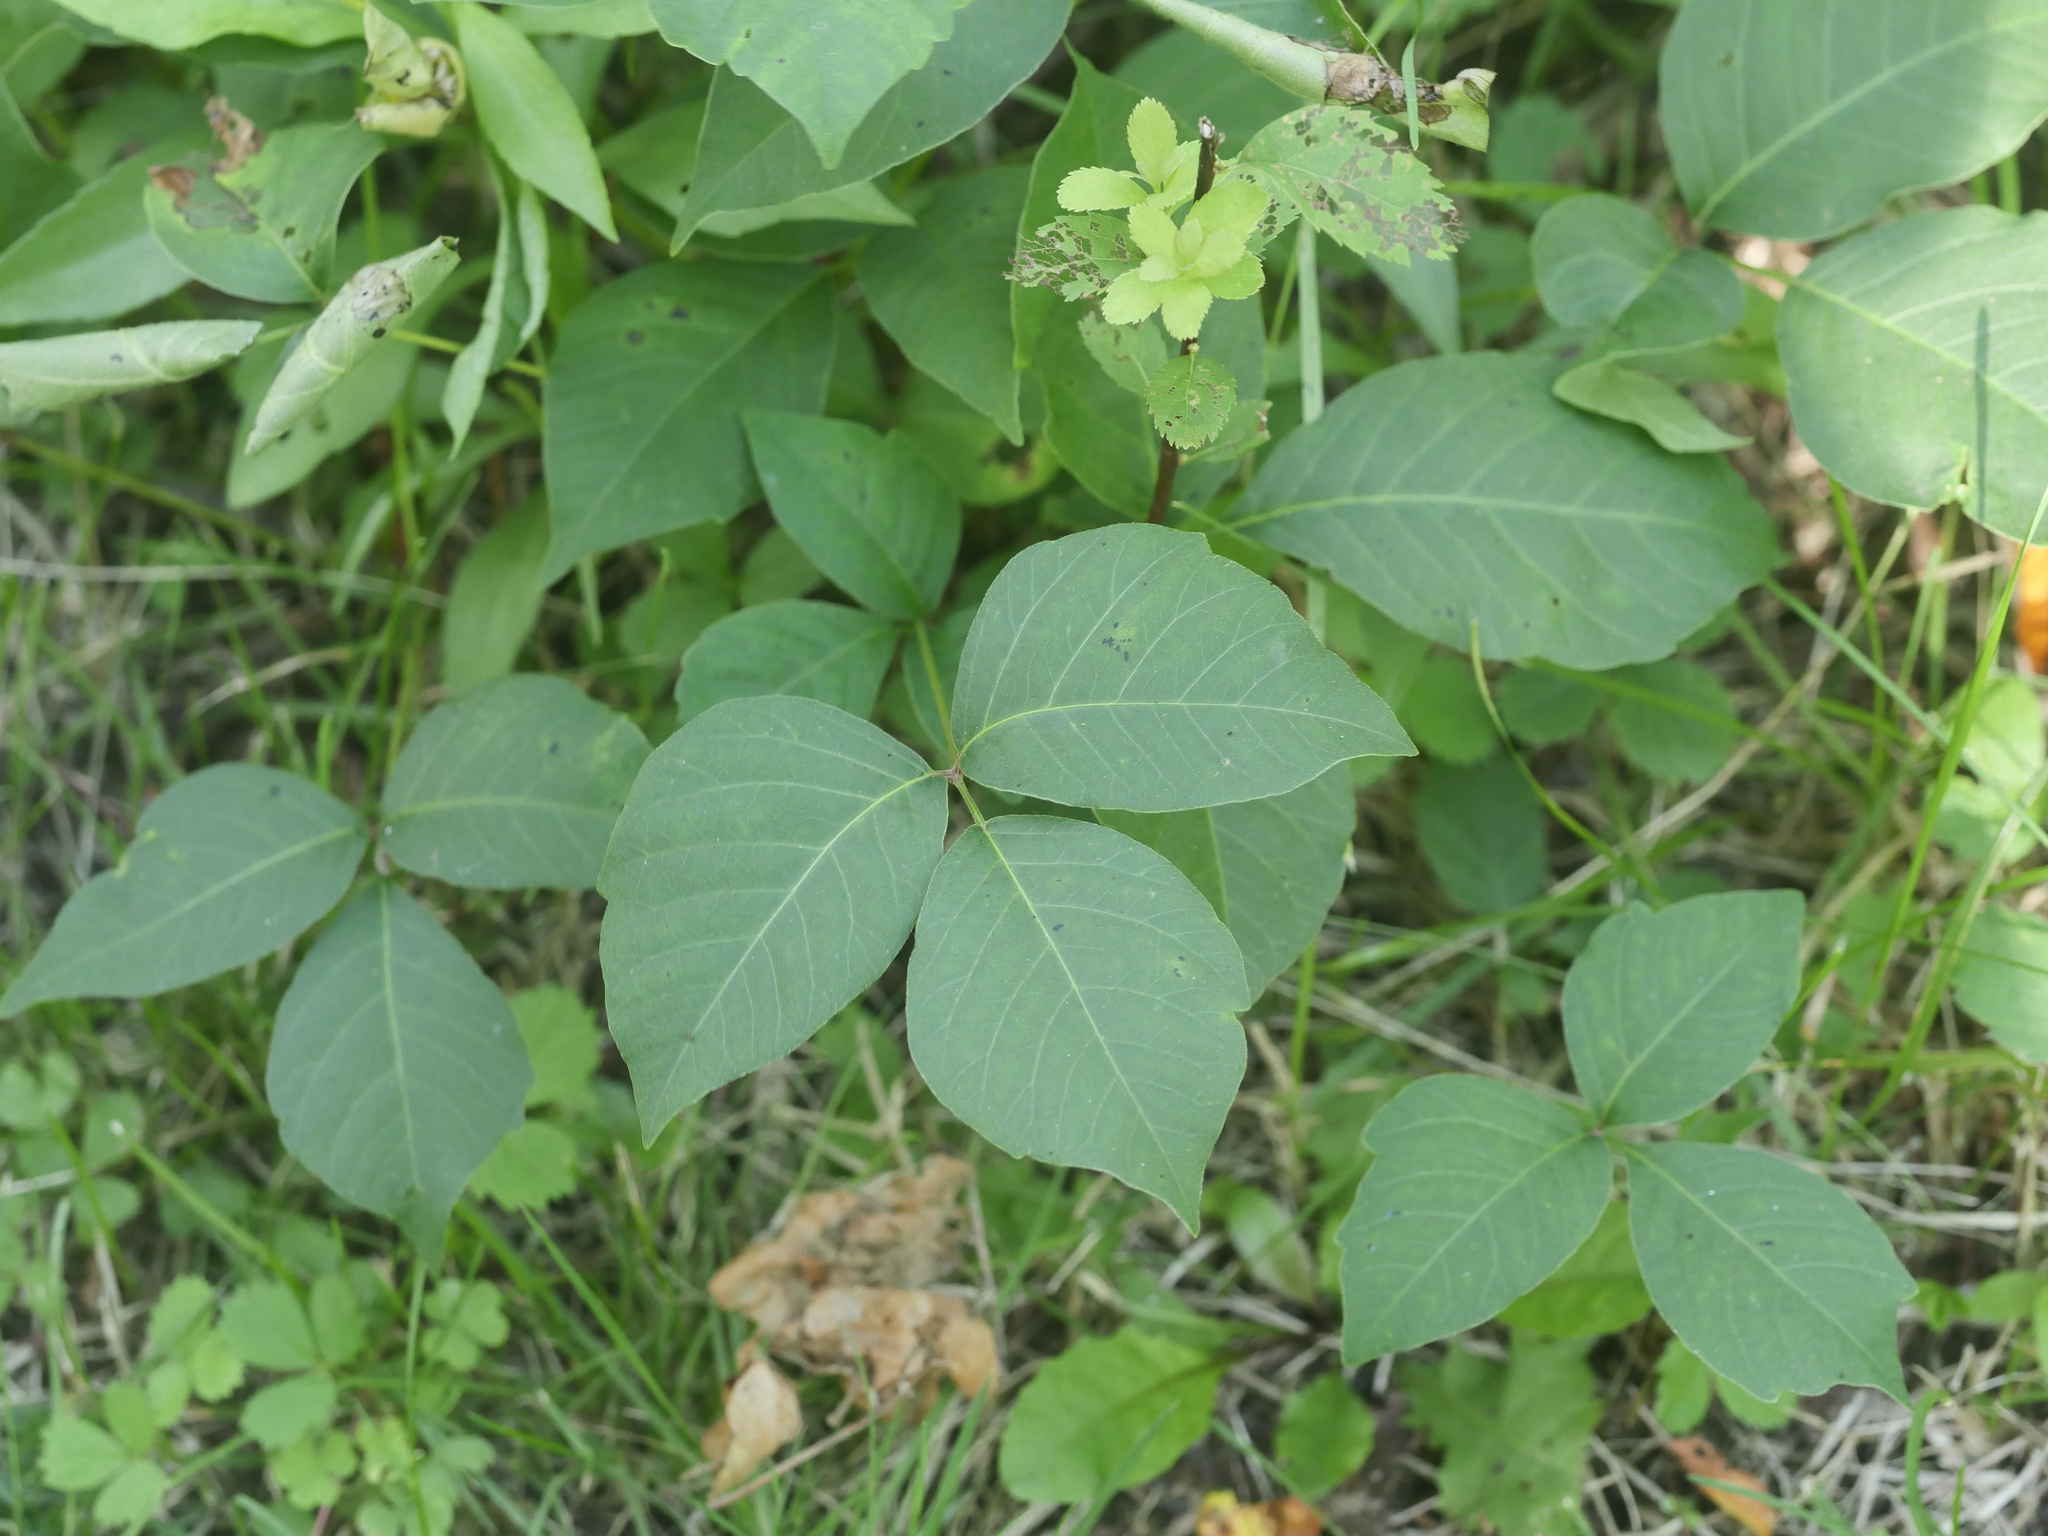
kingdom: Plantae
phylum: Tracheophyta
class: Magnoliopsida
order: Sapindales
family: Anacardiaceae
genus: Toxicodendron
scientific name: Toxicodendron rydbergii
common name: Rydberg's poison-ivy
